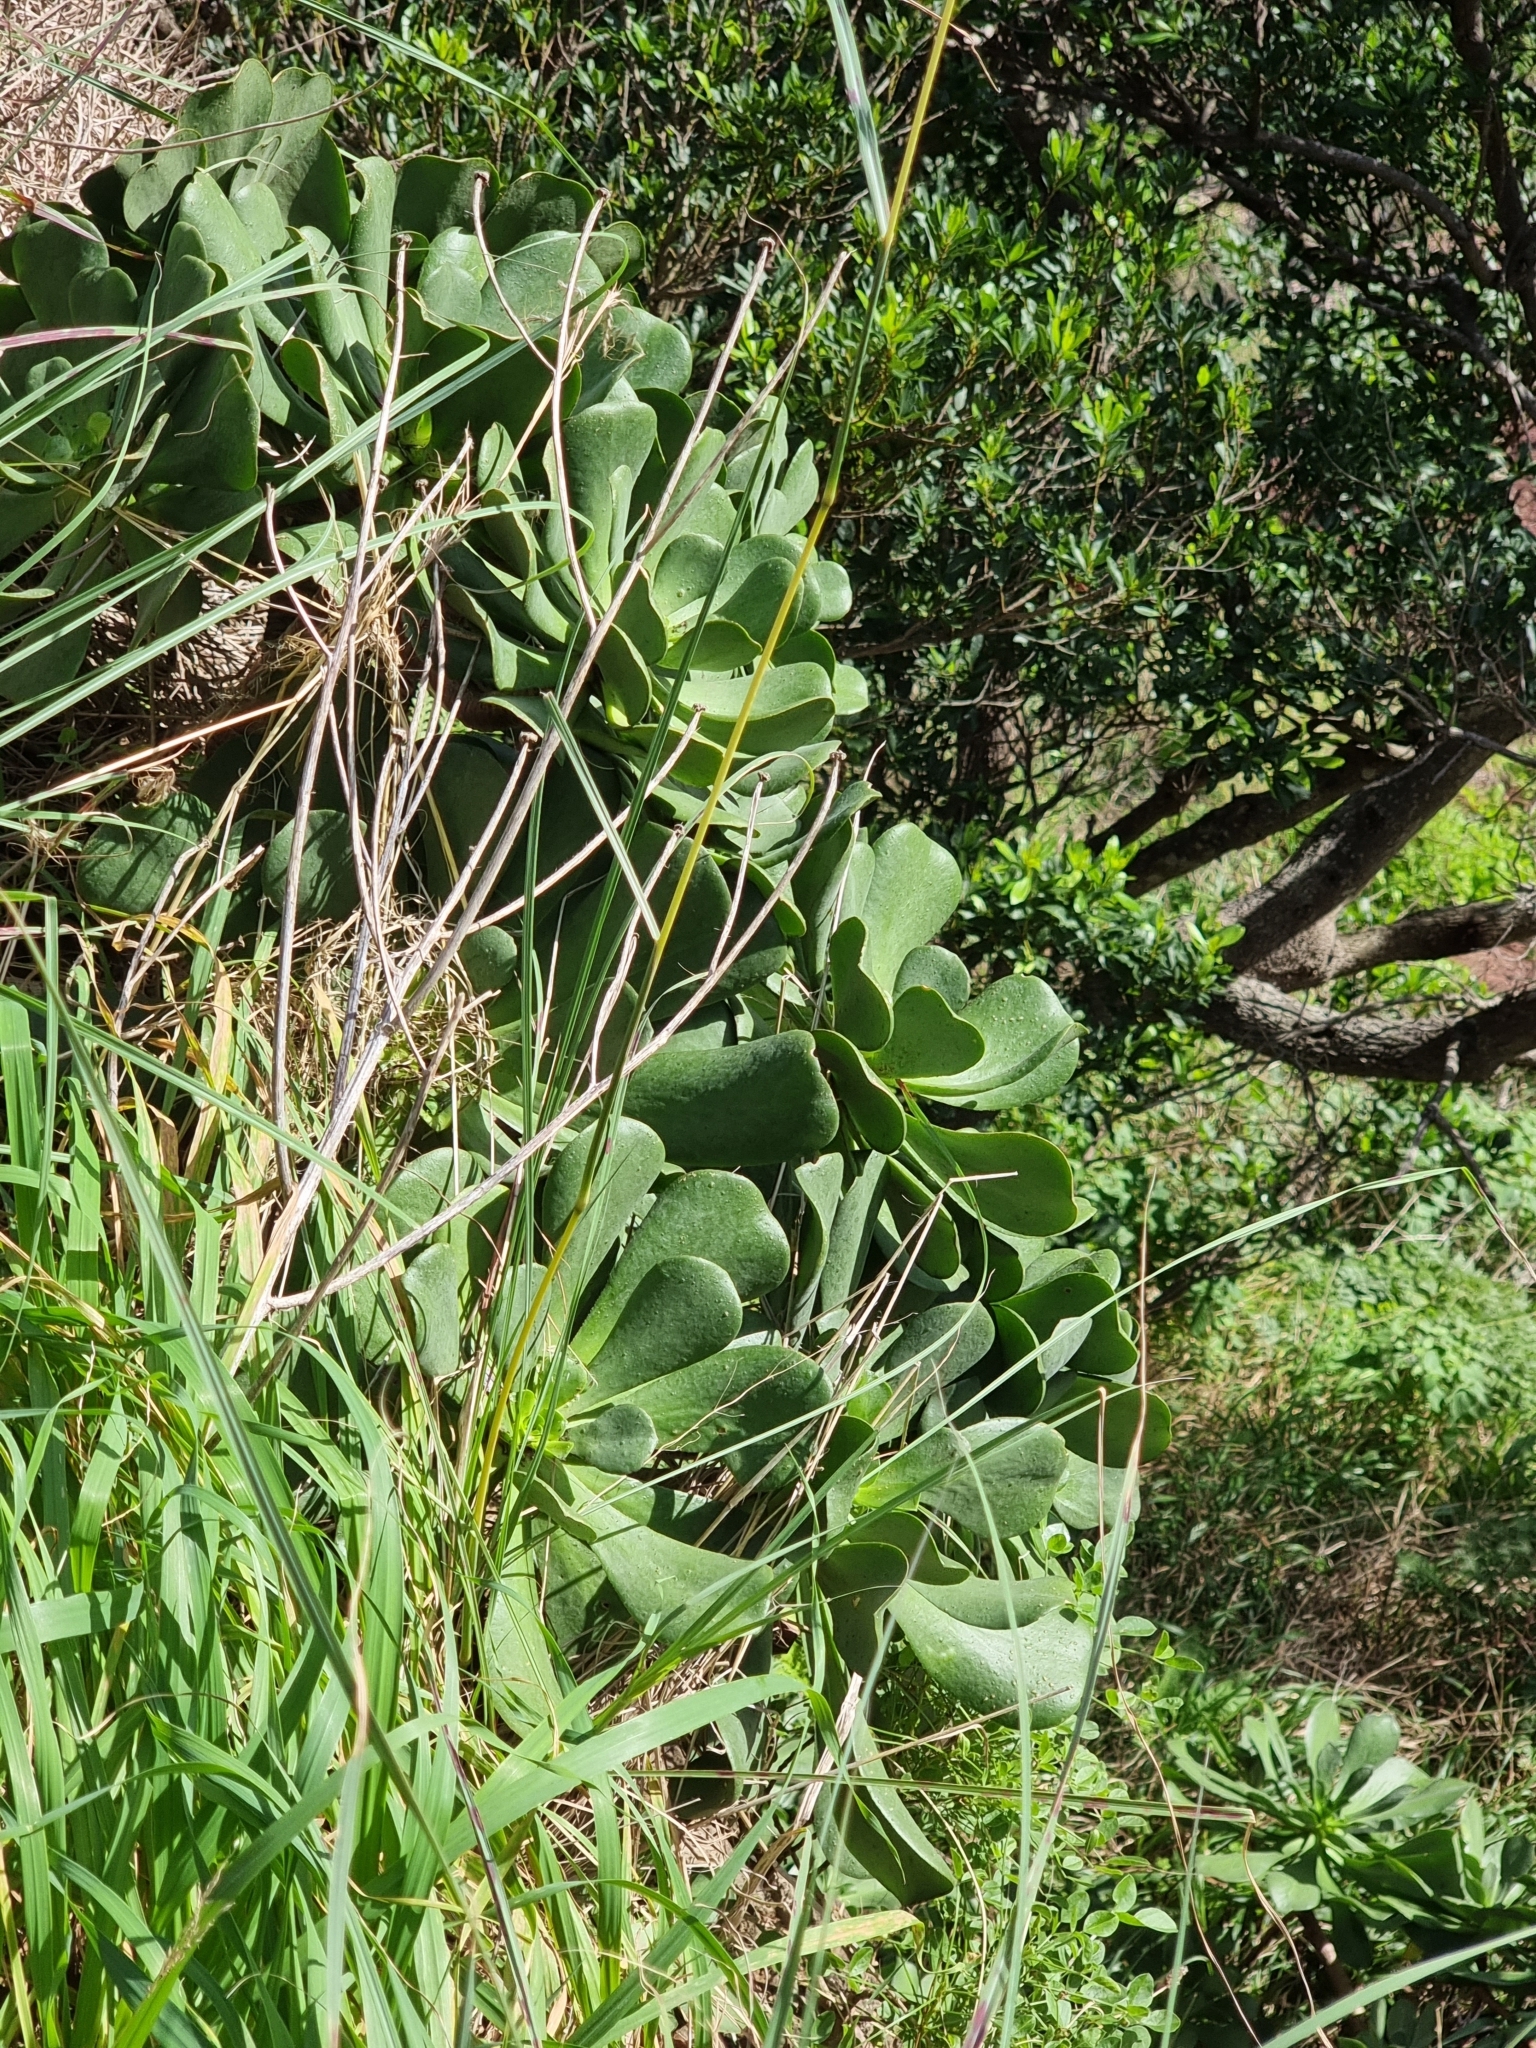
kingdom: Plantae
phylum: Tracheophyta
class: Magnoliopsida
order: Saxifragales
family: Crassulaceae
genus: Aeonium
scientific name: Aeonium glutinosum
